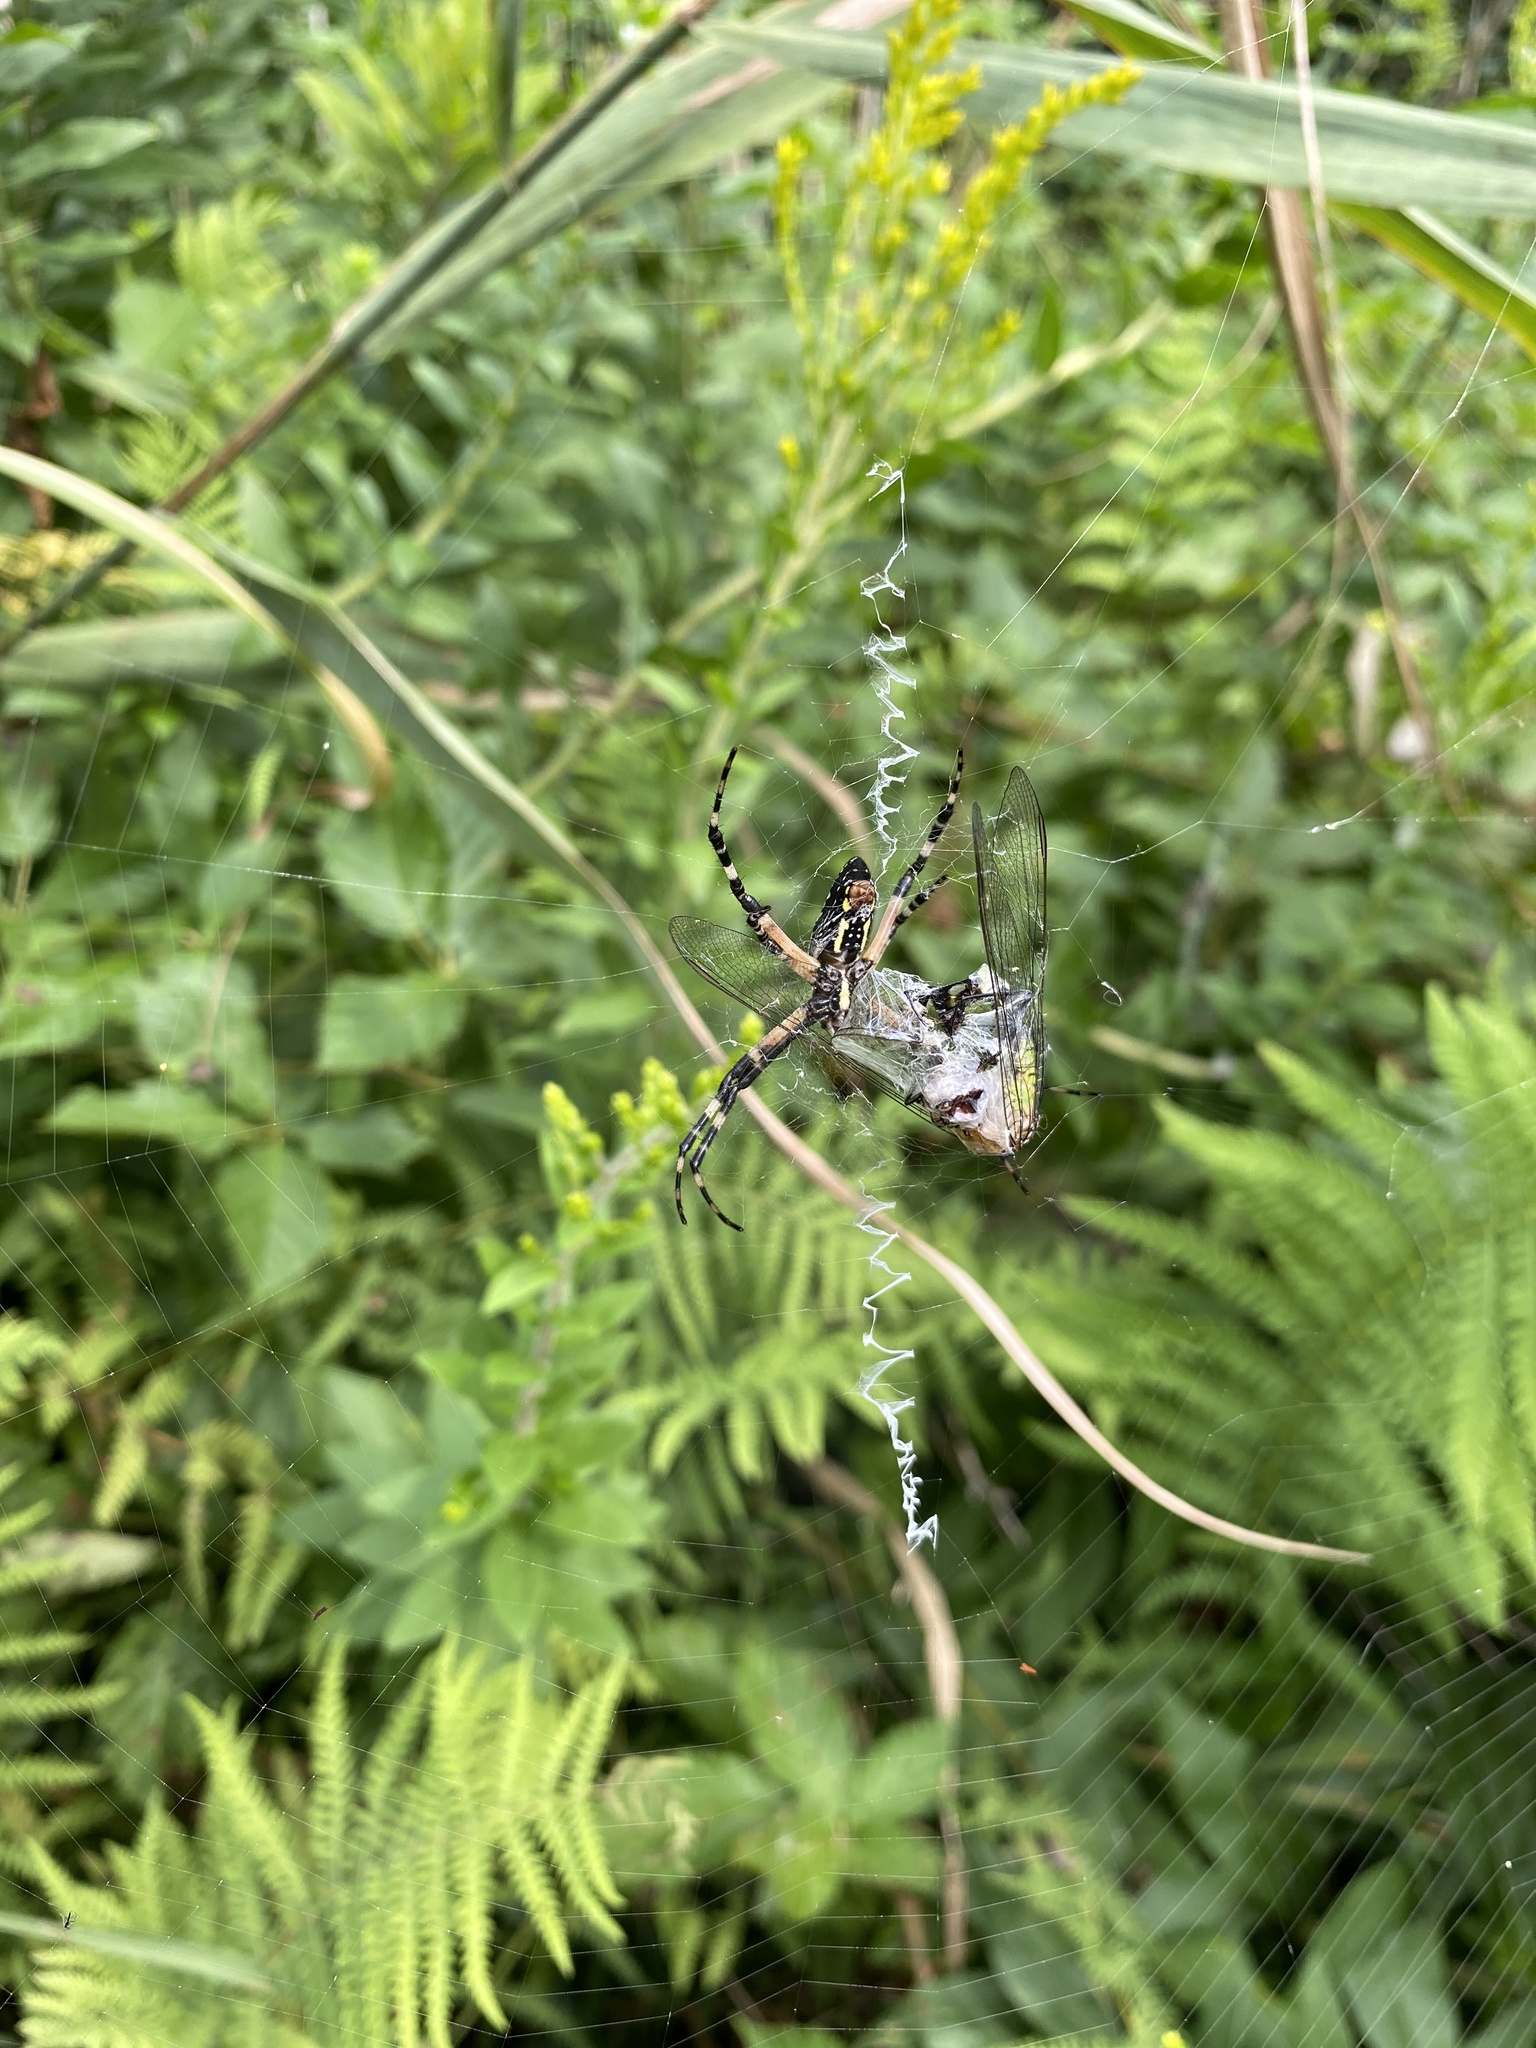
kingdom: Animalia
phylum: Arthropoda
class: Arachnida
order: Araneae
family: Araneidae
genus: Argiope
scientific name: Argiope aurantia
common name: Orb weavers
